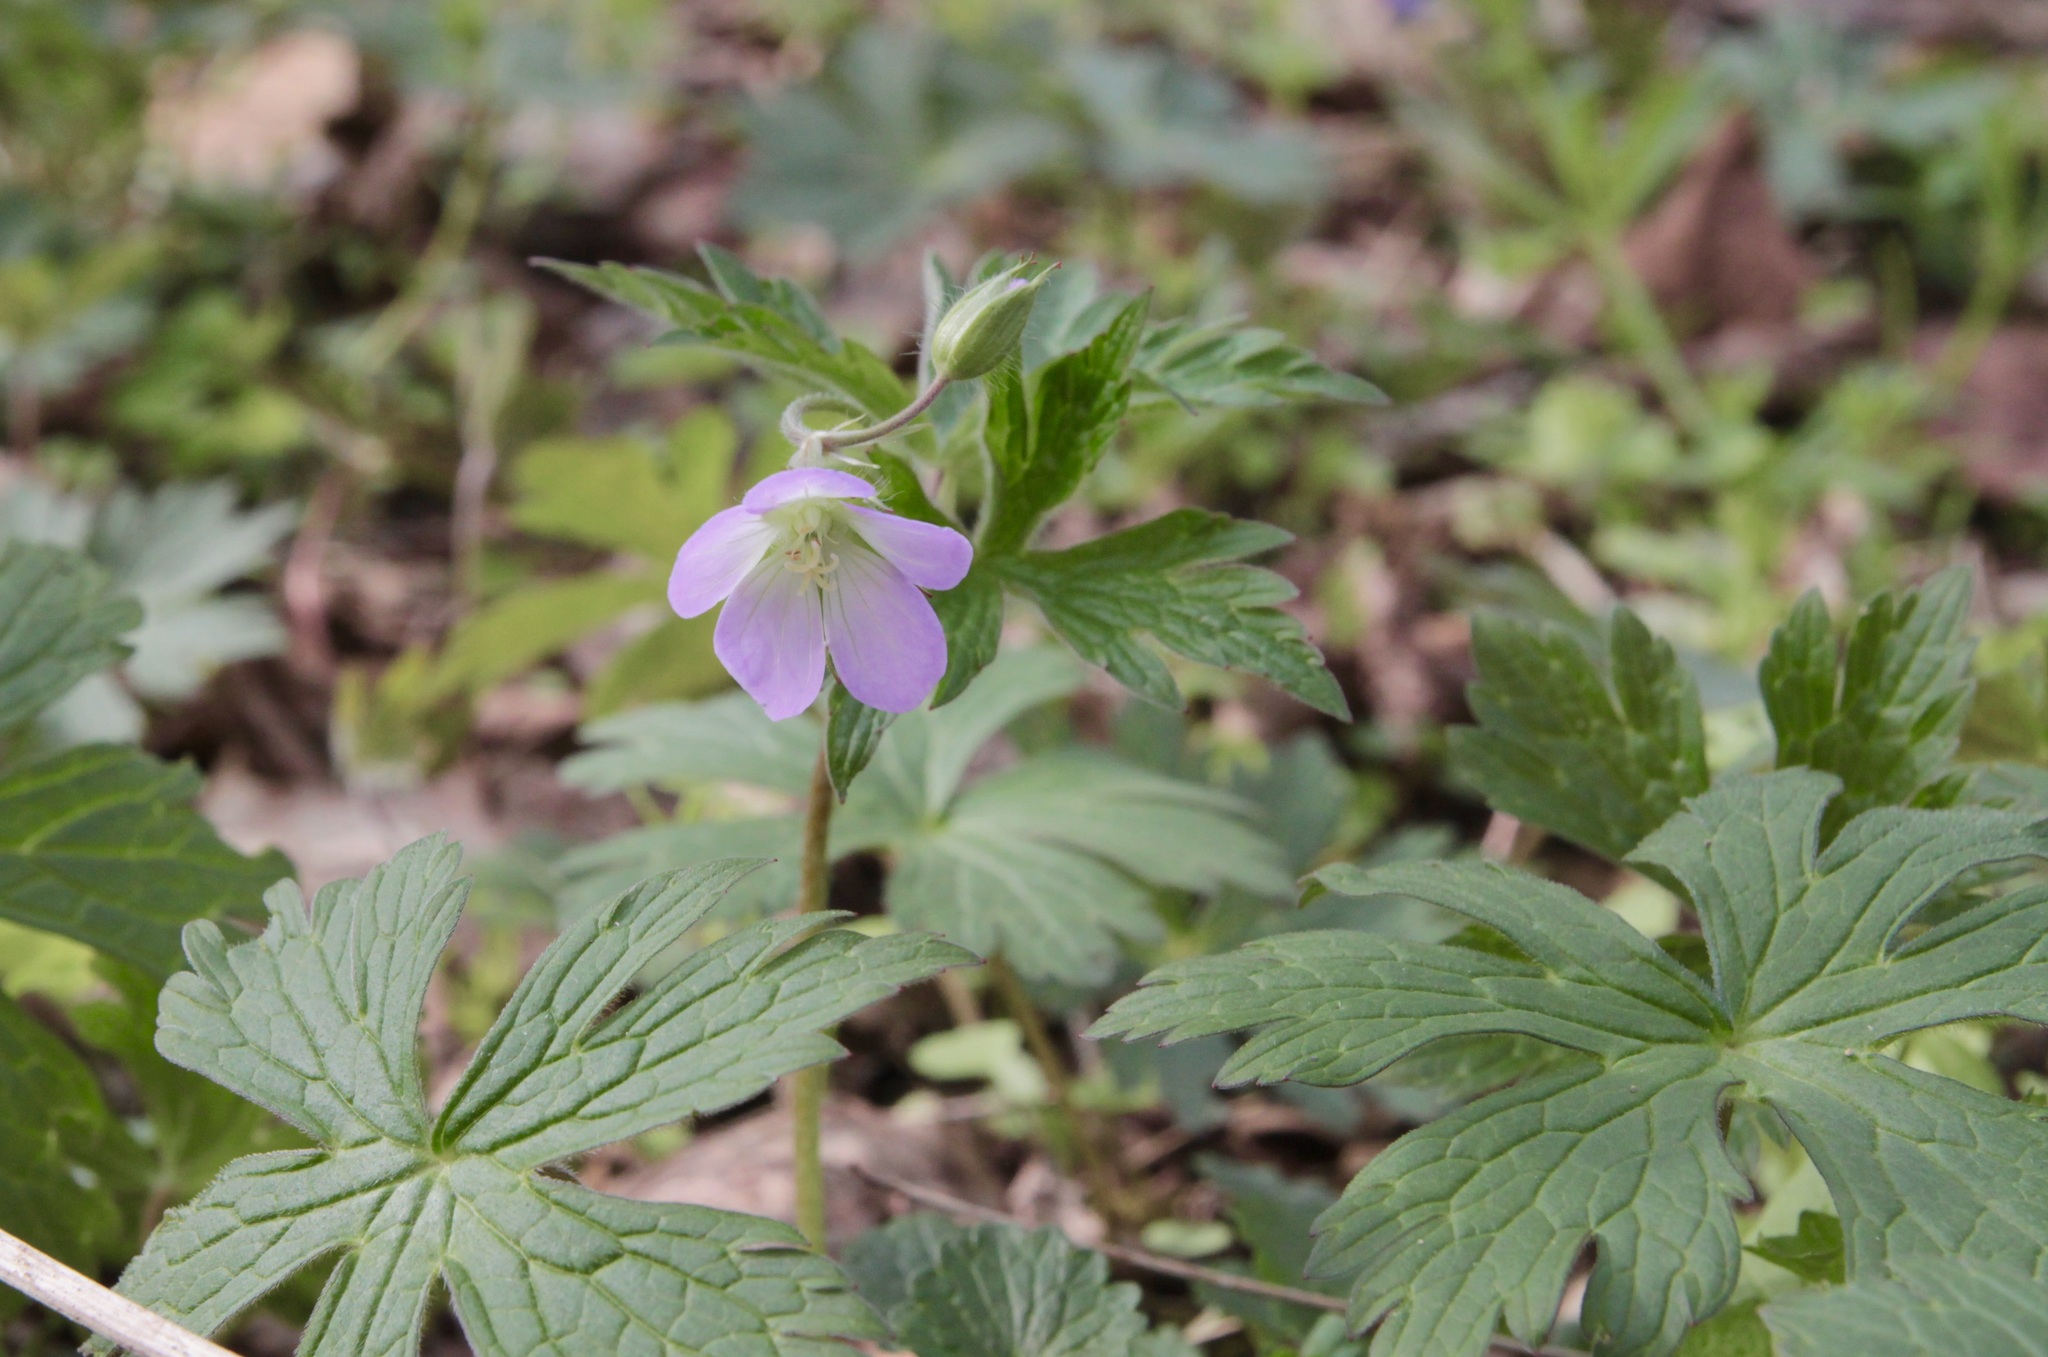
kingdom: Plantae
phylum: Tracheophyta
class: Magnoliopsida
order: Geraniales
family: Geraniaceae
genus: Geranium
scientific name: Geranium maculatum
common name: Spotted geranium
